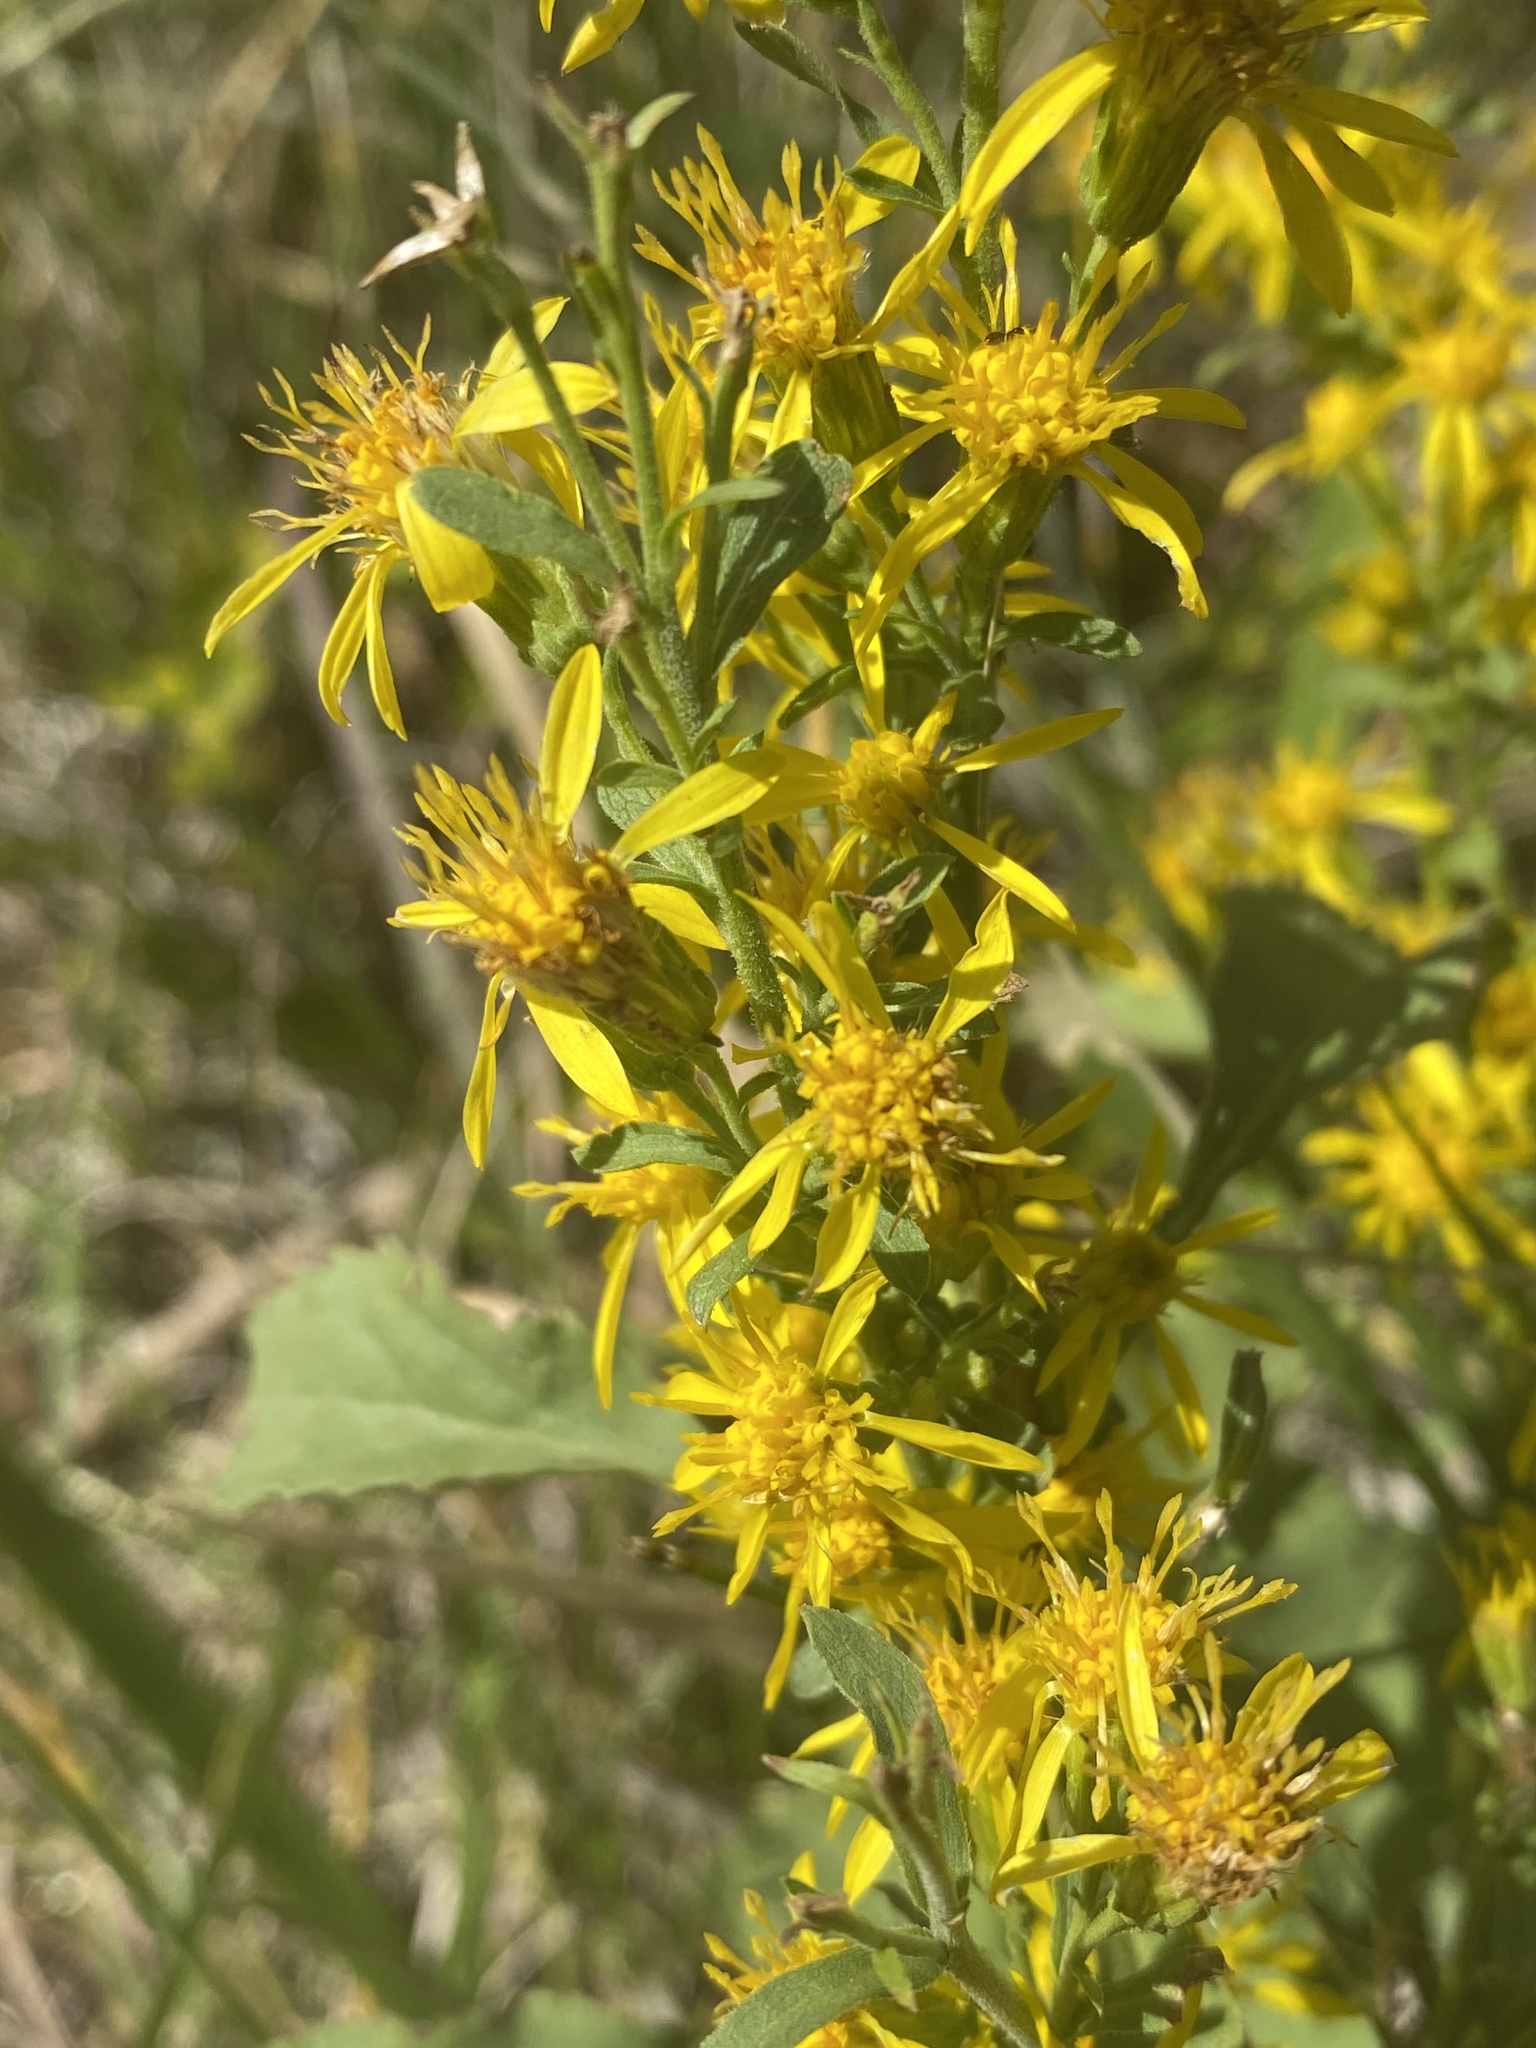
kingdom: Plantae
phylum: Tracheophyta
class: Magnoliopsida
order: Asterales
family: Asteraceae
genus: Solidago
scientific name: Solidago virgaurea
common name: Goldenrod
